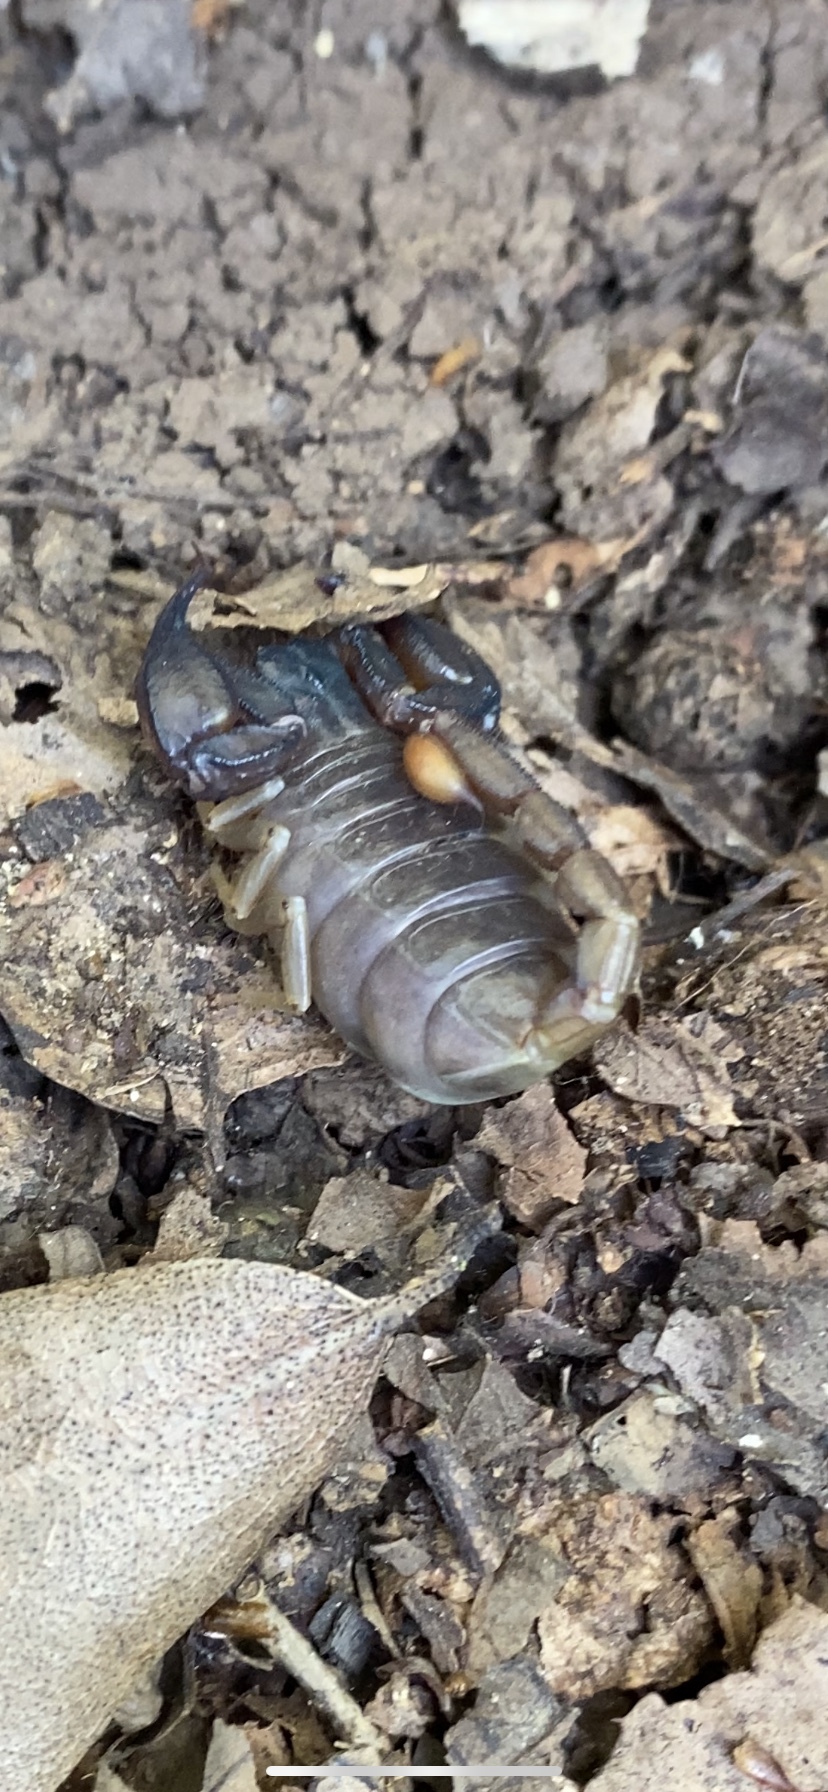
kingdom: Animalia
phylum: Arthropoda
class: Arachnida
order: Scorpiones
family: Chactidae
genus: Uroctonus
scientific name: Uroctonus mordax
